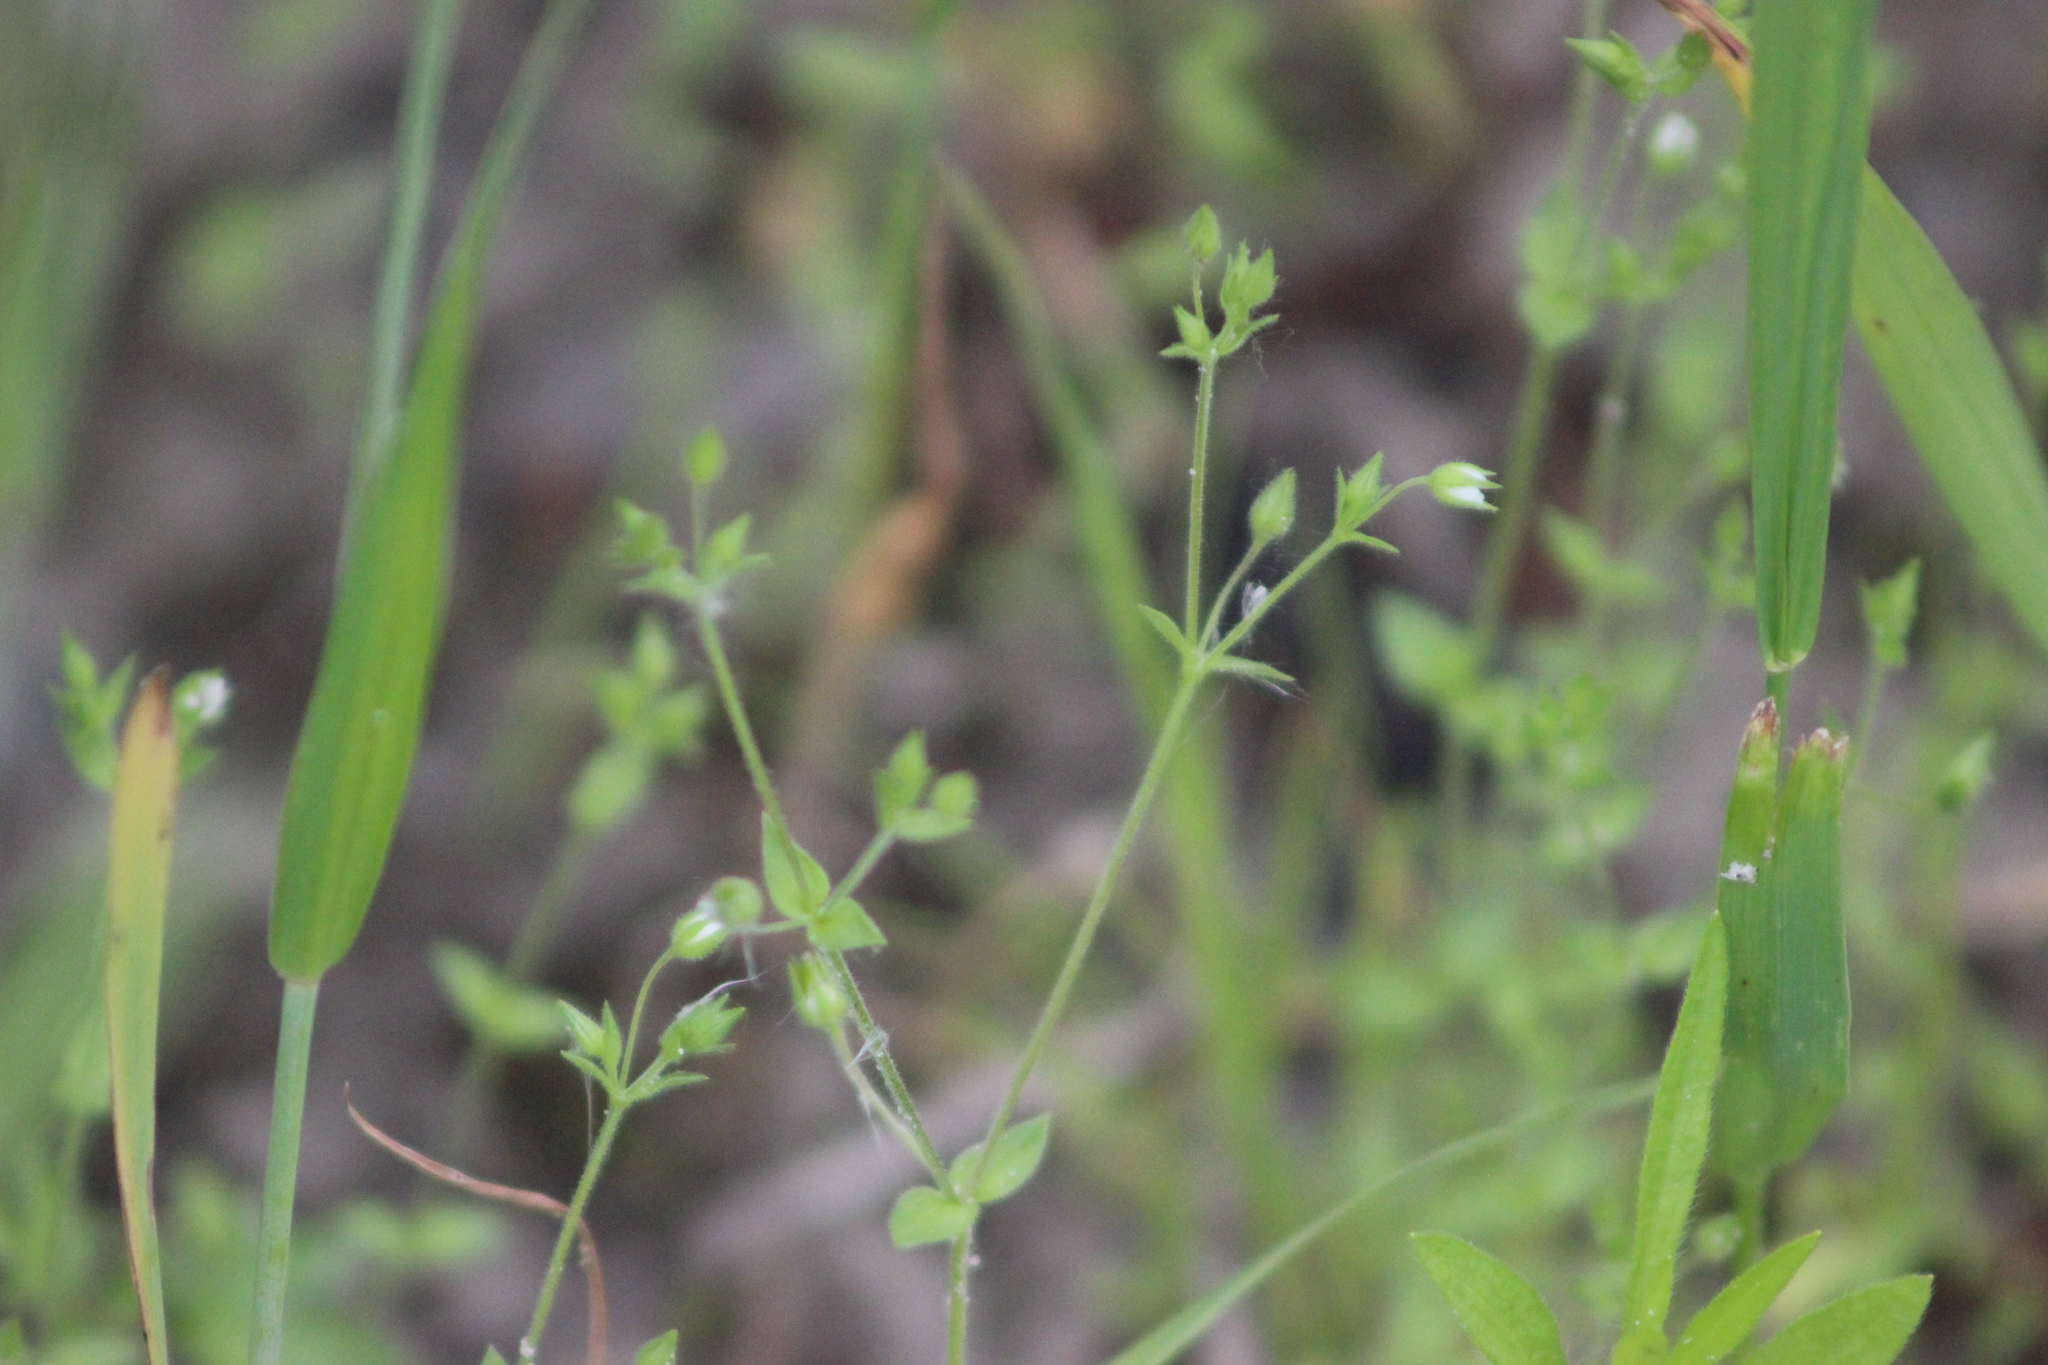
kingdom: Plantae
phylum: Tracheophyta
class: Magnoliopsida
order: Caryophyllales
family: Caryophyllaceae
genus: Arenaria
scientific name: Arenaria serpyllifolia
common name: Thyme-leaved sandwort
